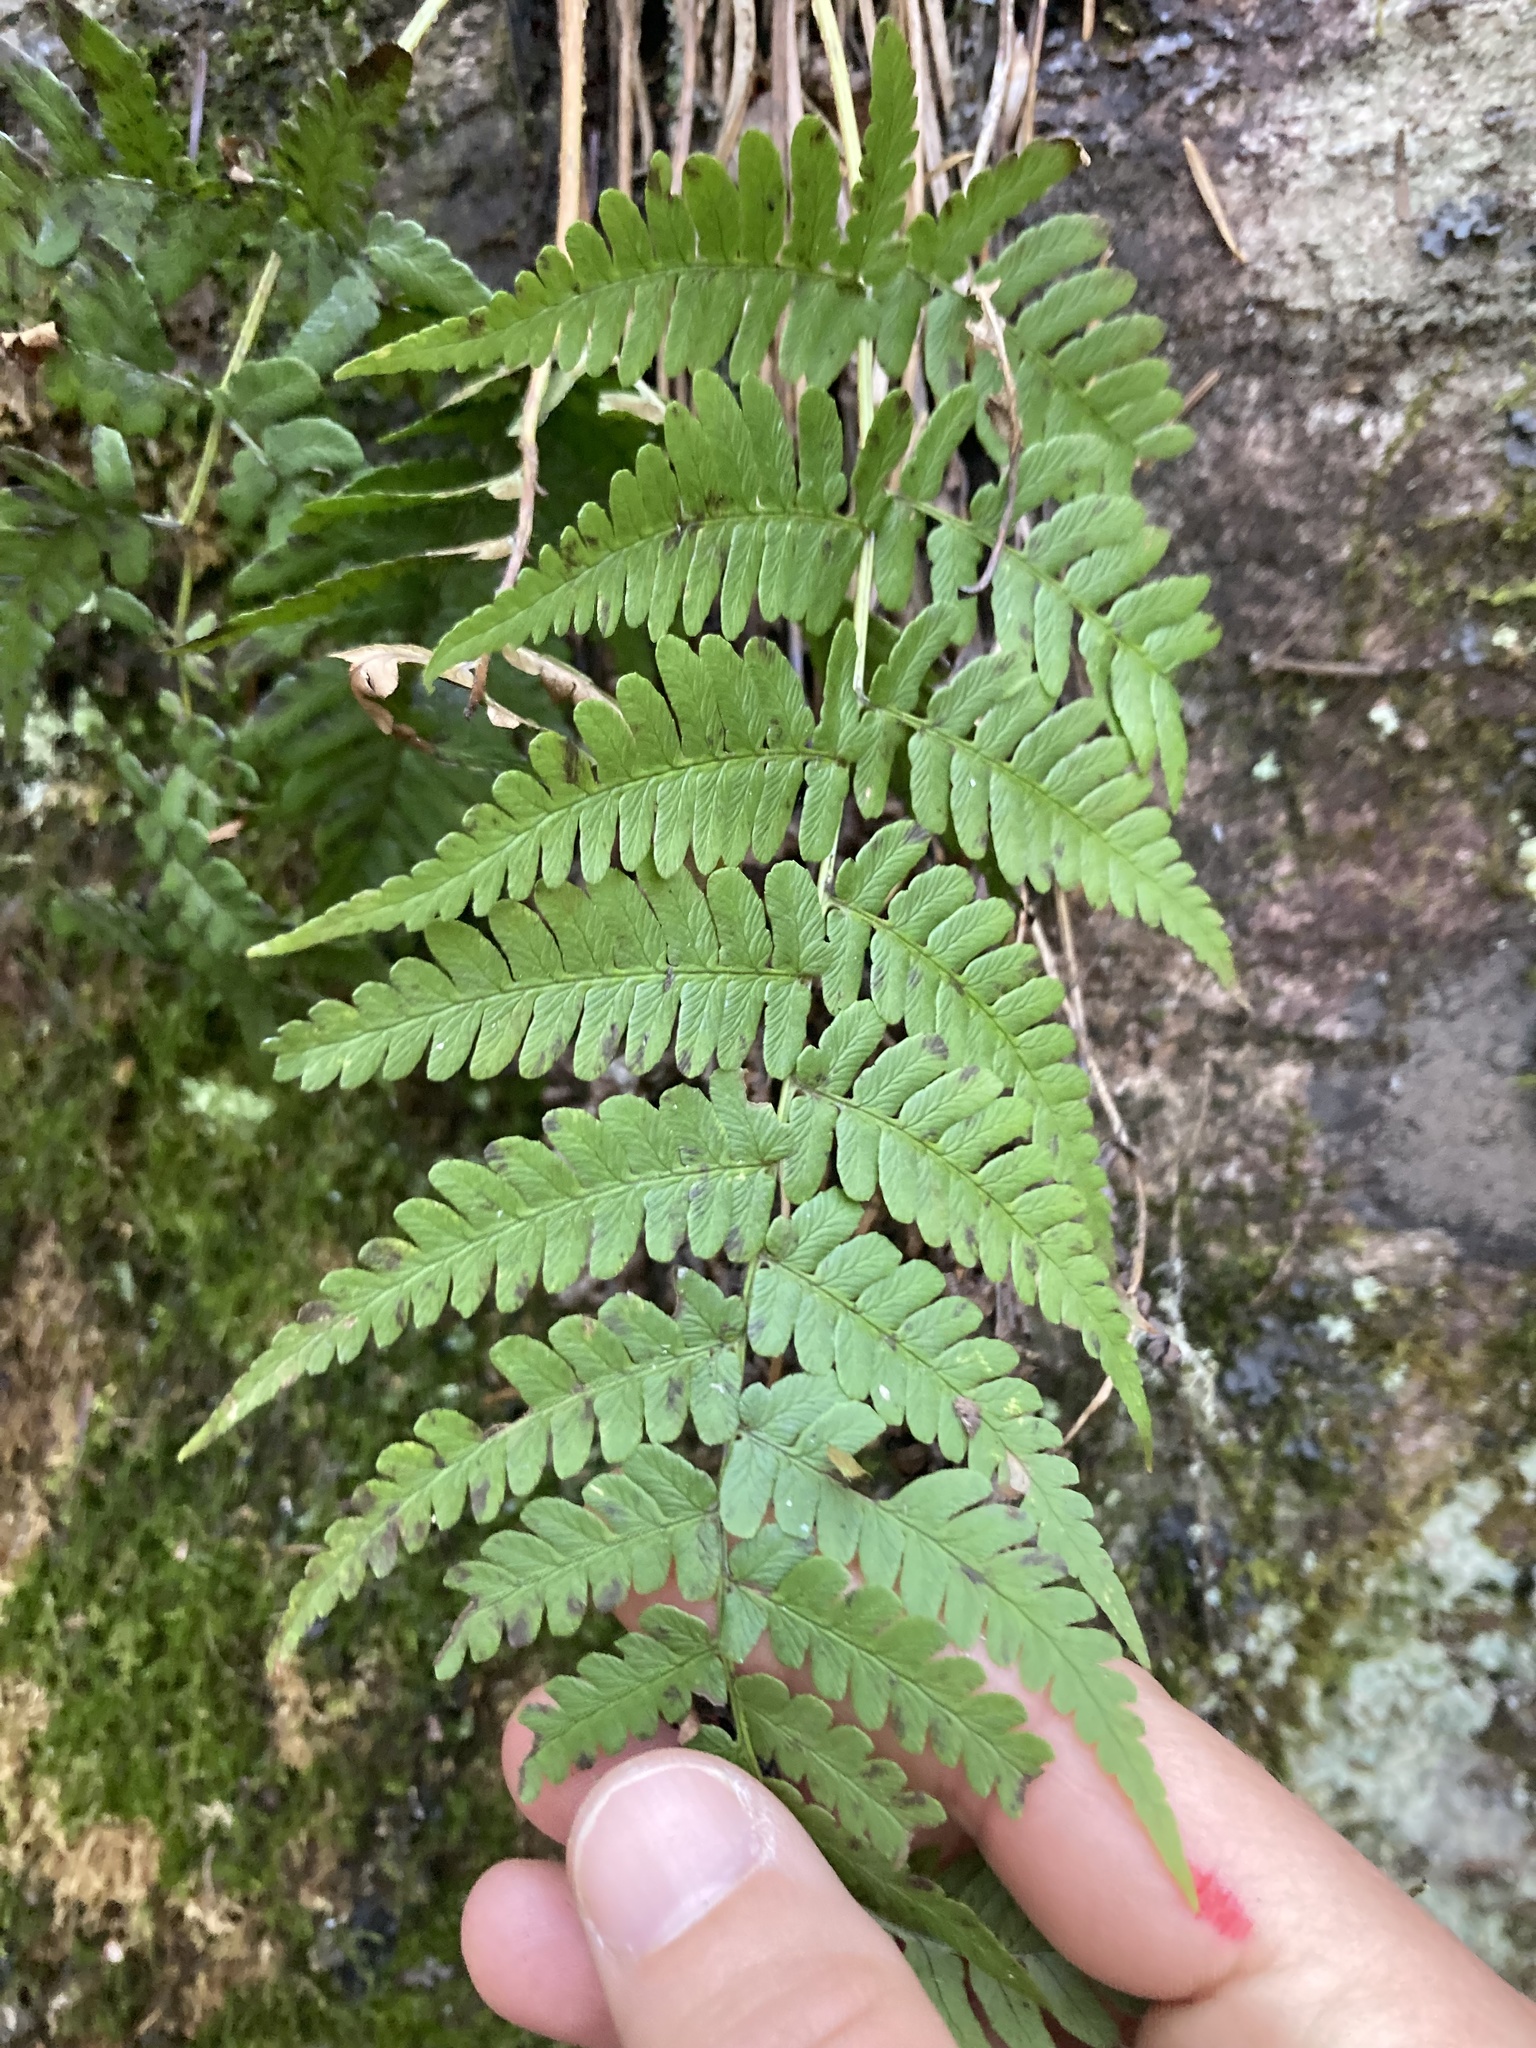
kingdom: Plantae
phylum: Tracheophyta
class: Polypodiopsida
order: Polypodiales
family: Dryopteridaceae
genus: Dryopteris
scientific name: Dryopteris marginalis
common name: Marginal wood fern
